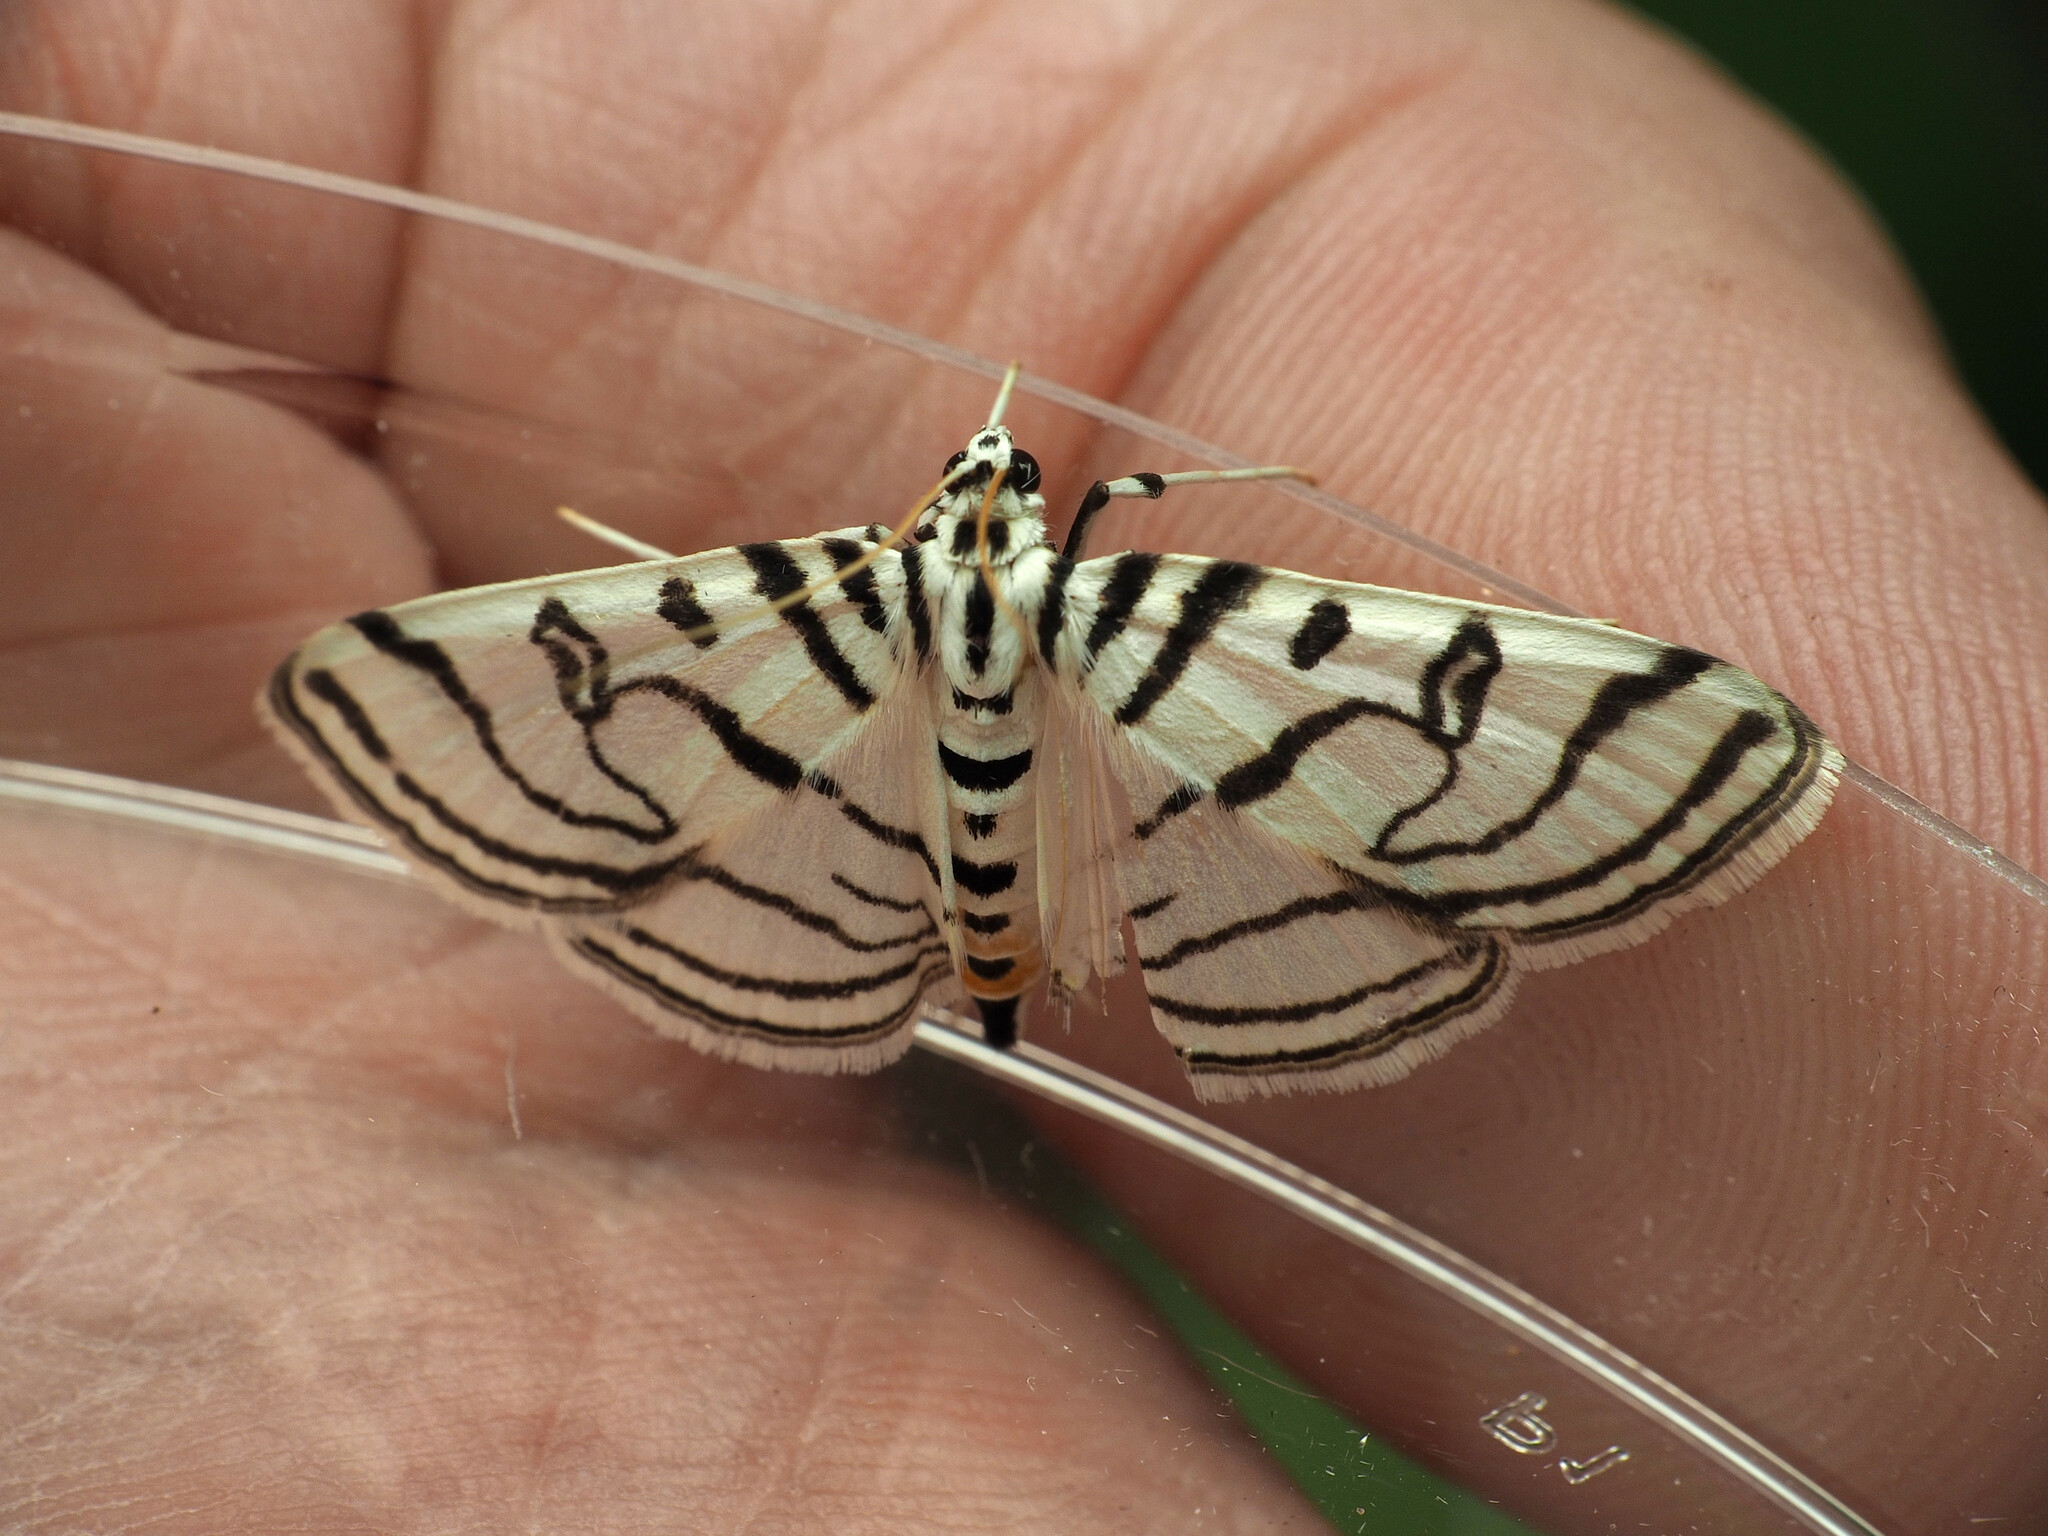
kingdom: Animalia
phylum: Arthropoda
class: Insecta
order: Lepidoptera
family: Crambidae
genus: Conchylodes
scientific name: Conchylodes ovulalis
